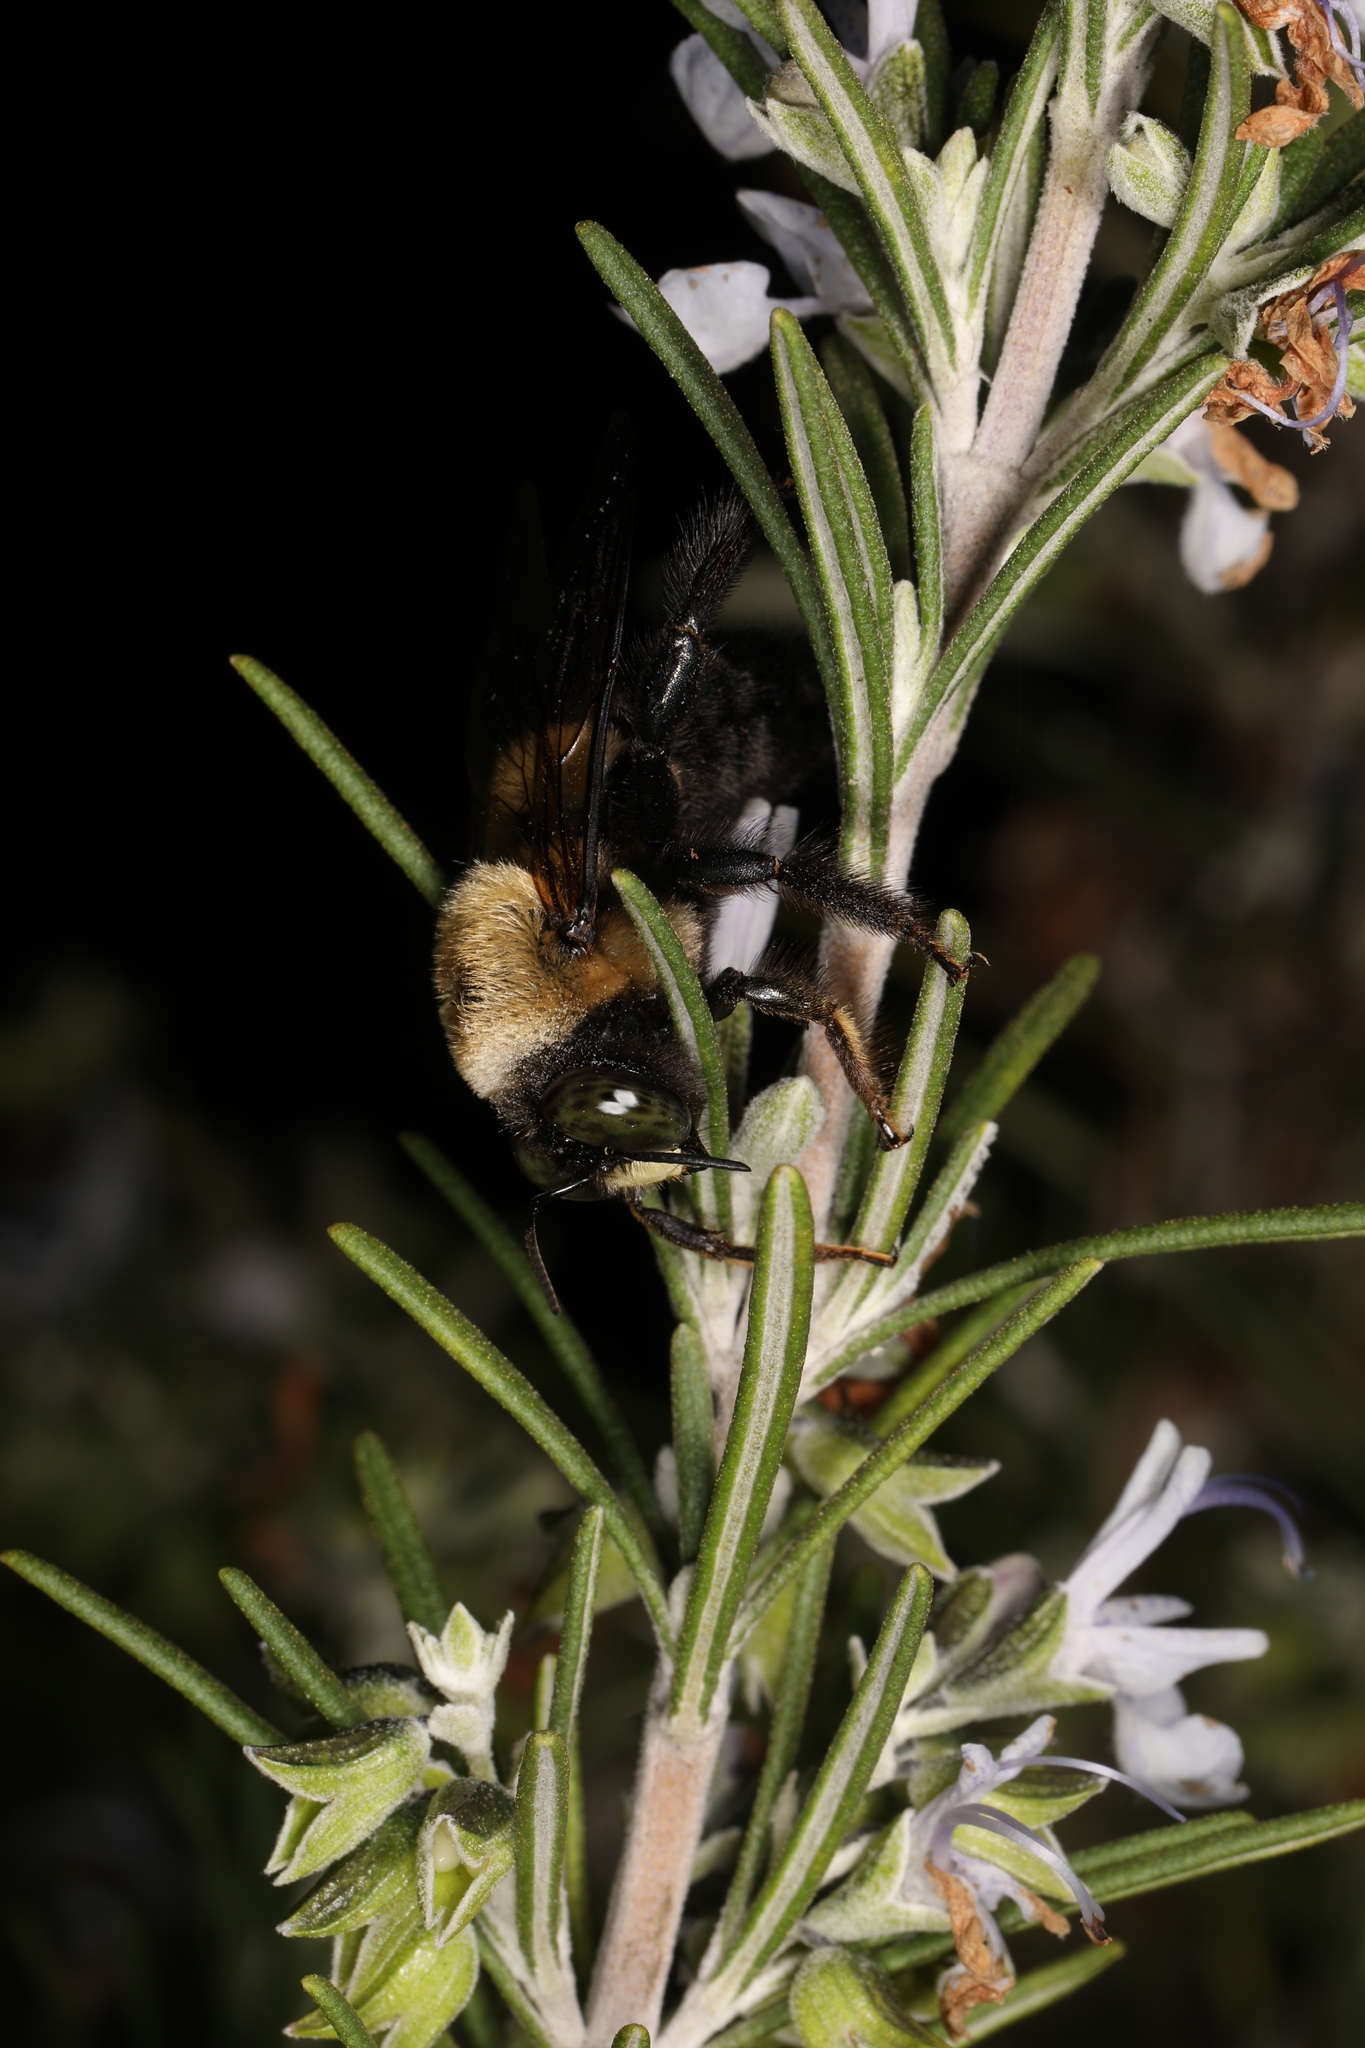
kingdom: Animalia
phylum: Arthropoda
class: Insecta
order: Hymenoptera
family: Apidae
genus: Xylocopa
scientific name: Xylocopa virginica
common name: Carpenter bee
